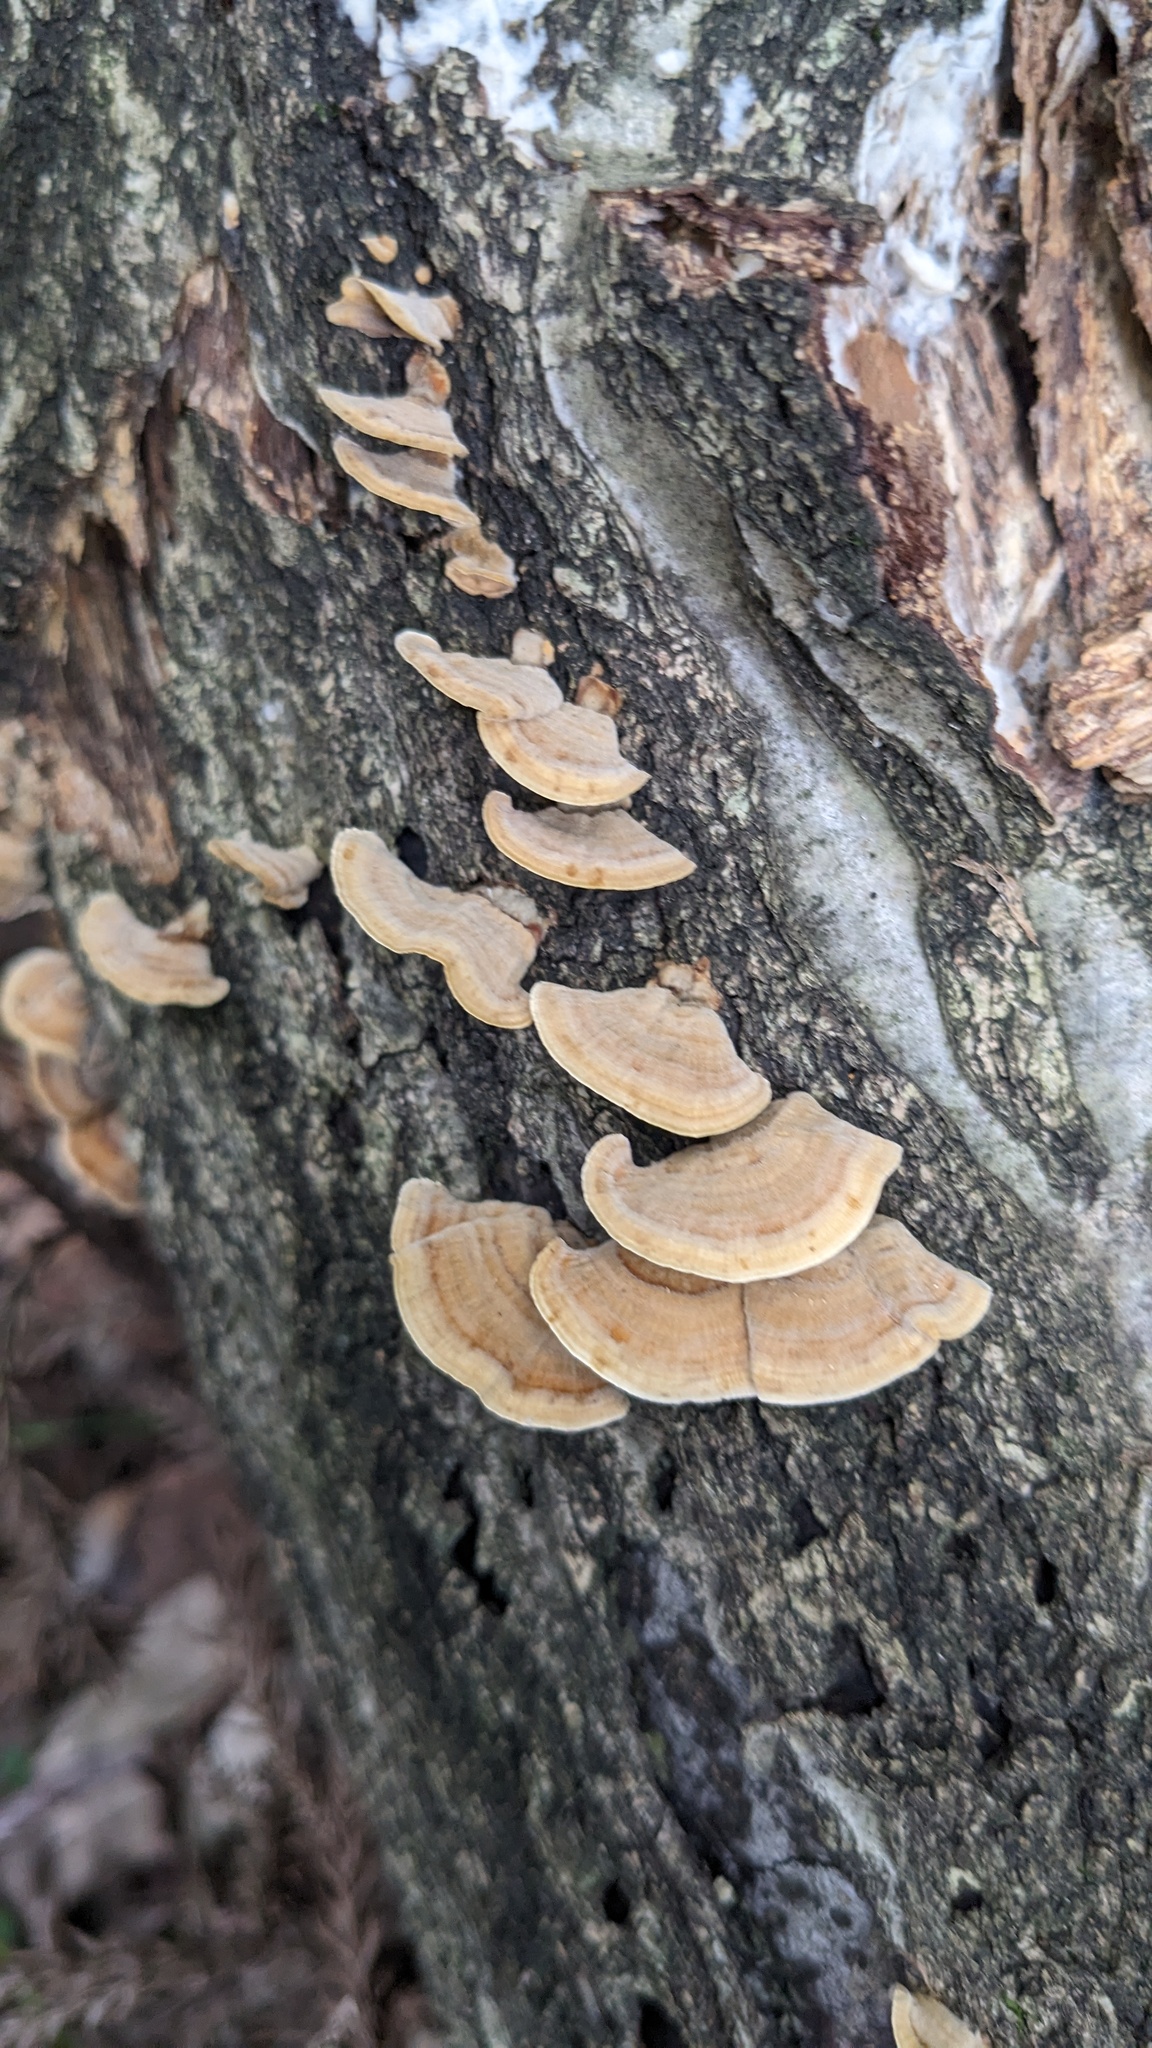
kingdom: Fungi
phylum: Basidiomycota
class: Agaricomycetes
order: Russulales
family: Stereaceae
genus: Stereum
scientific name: Stereum ostrea
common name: False turkeytail
